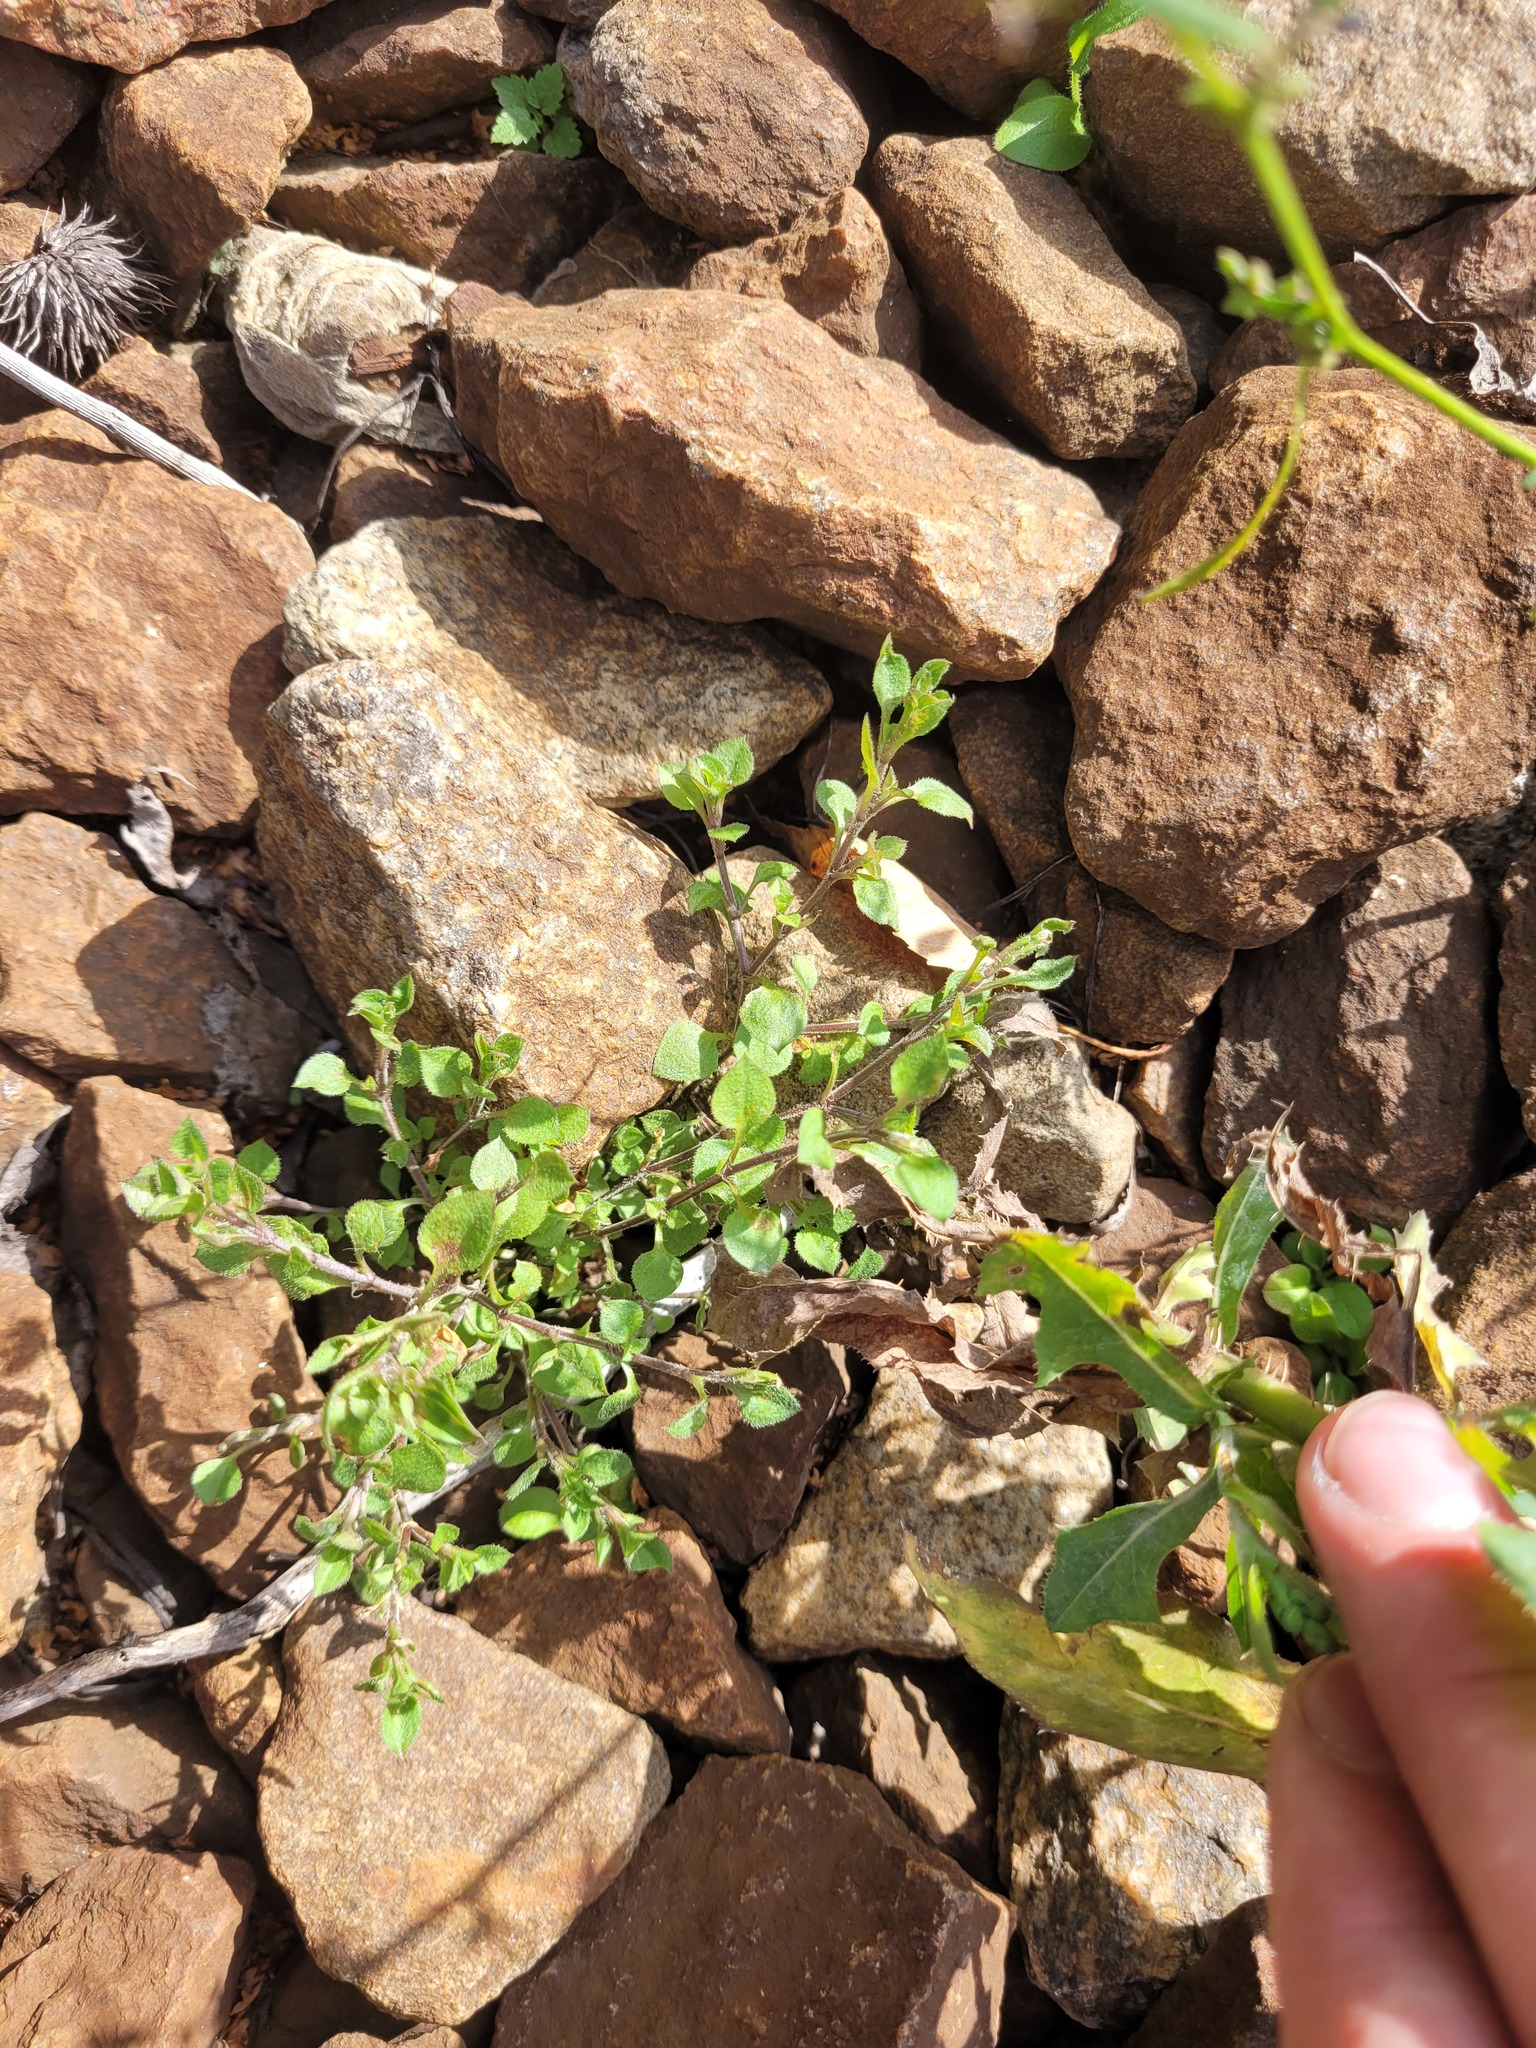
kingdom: Plantae
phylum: Tracheophyta
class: Magnoliopsida
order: Caryophyllales
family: Caryophyllaceae
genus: Moehringia
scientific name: Moehringia trinervia
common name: Three-nerved sandwort
